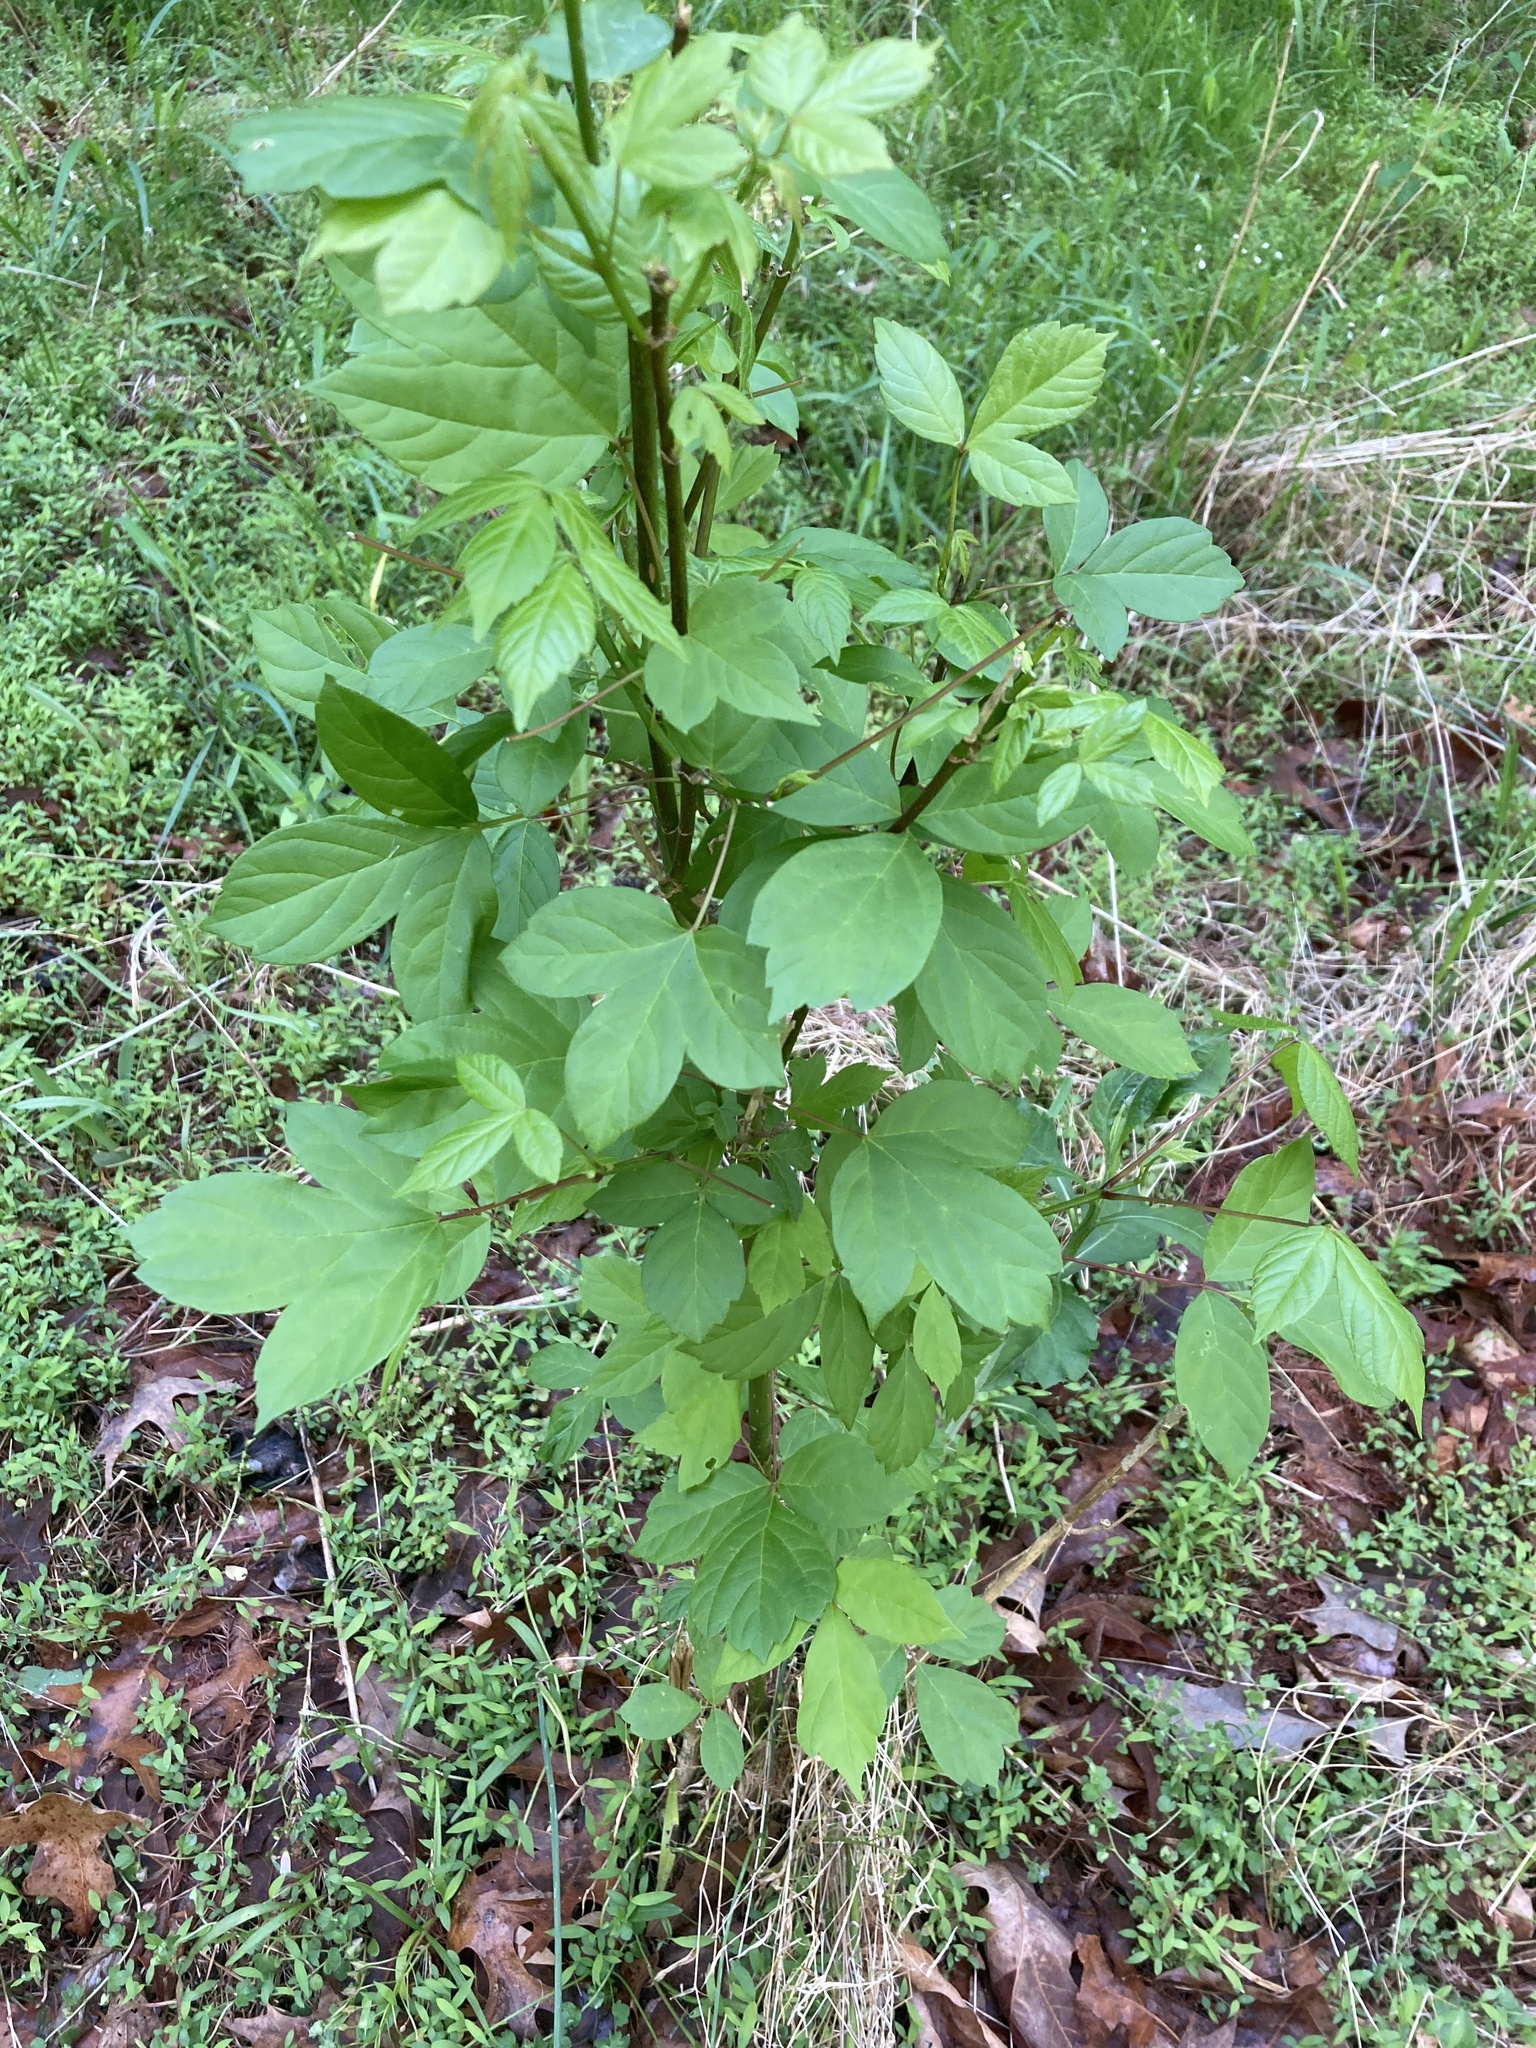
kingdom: Plantae
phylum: Tracheophyta
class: Magnoliopsida
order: Sapindales
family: Sapindaceae
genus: Acer
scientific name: Acer negundo
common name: Ashleaf maple
